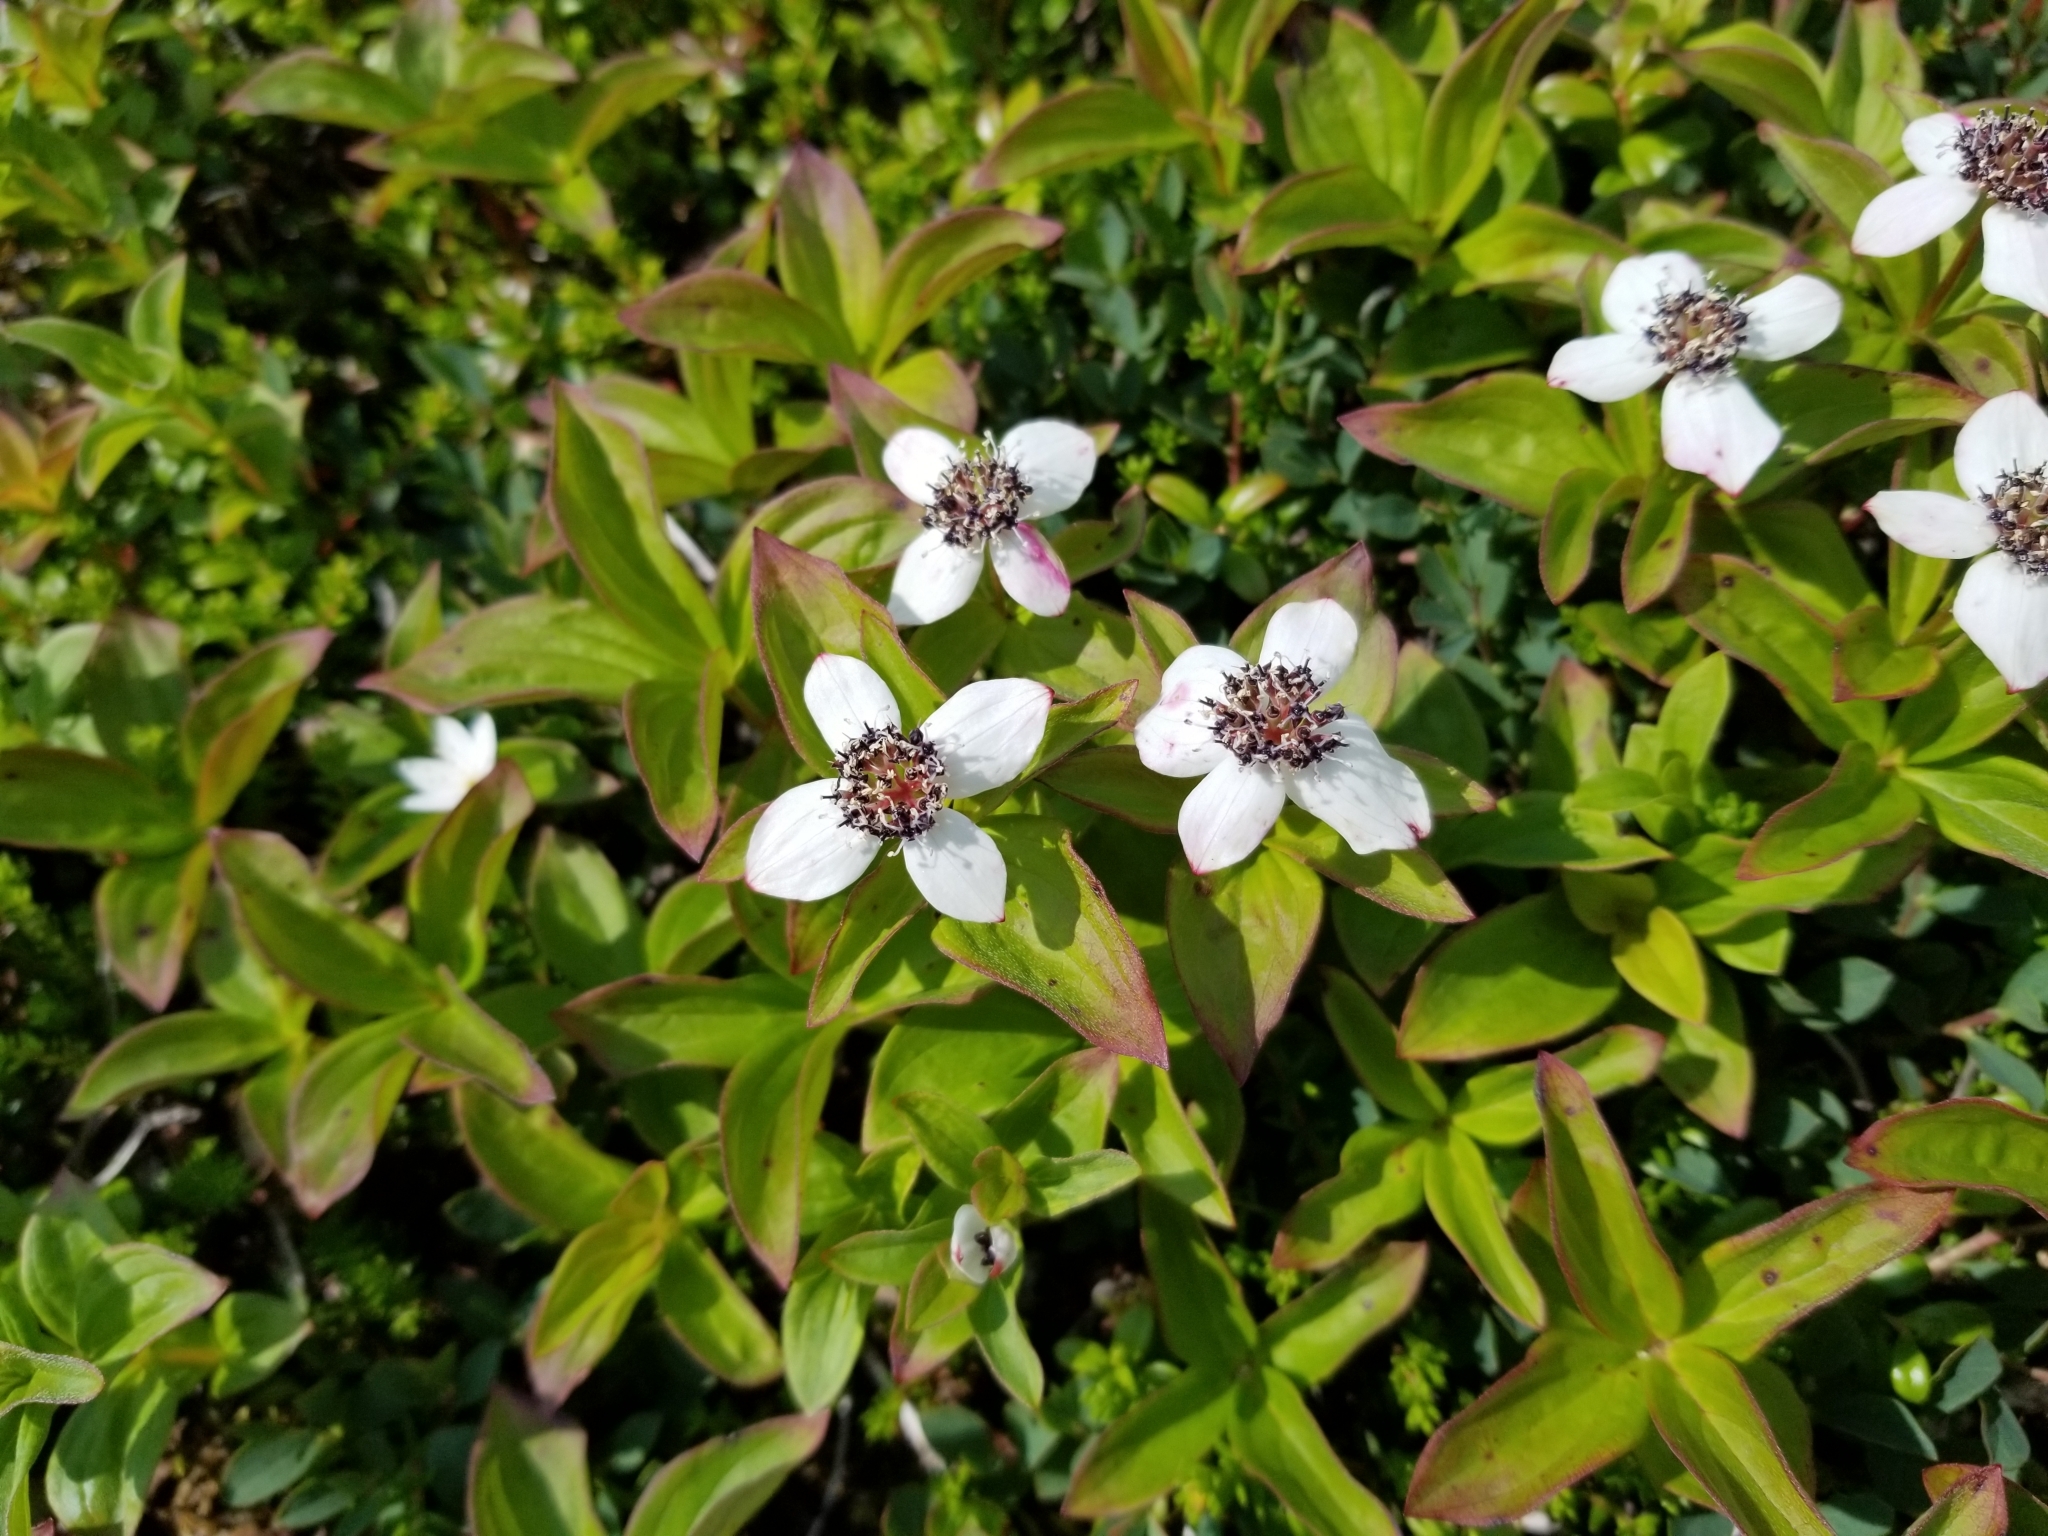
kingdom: Plantae
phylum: Tracheophyta
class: Magnoliopsida
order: Cornales
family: Cornaceae
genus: Cornus
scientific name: Cornus unalaschkensis
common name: Alaska bunchberry
